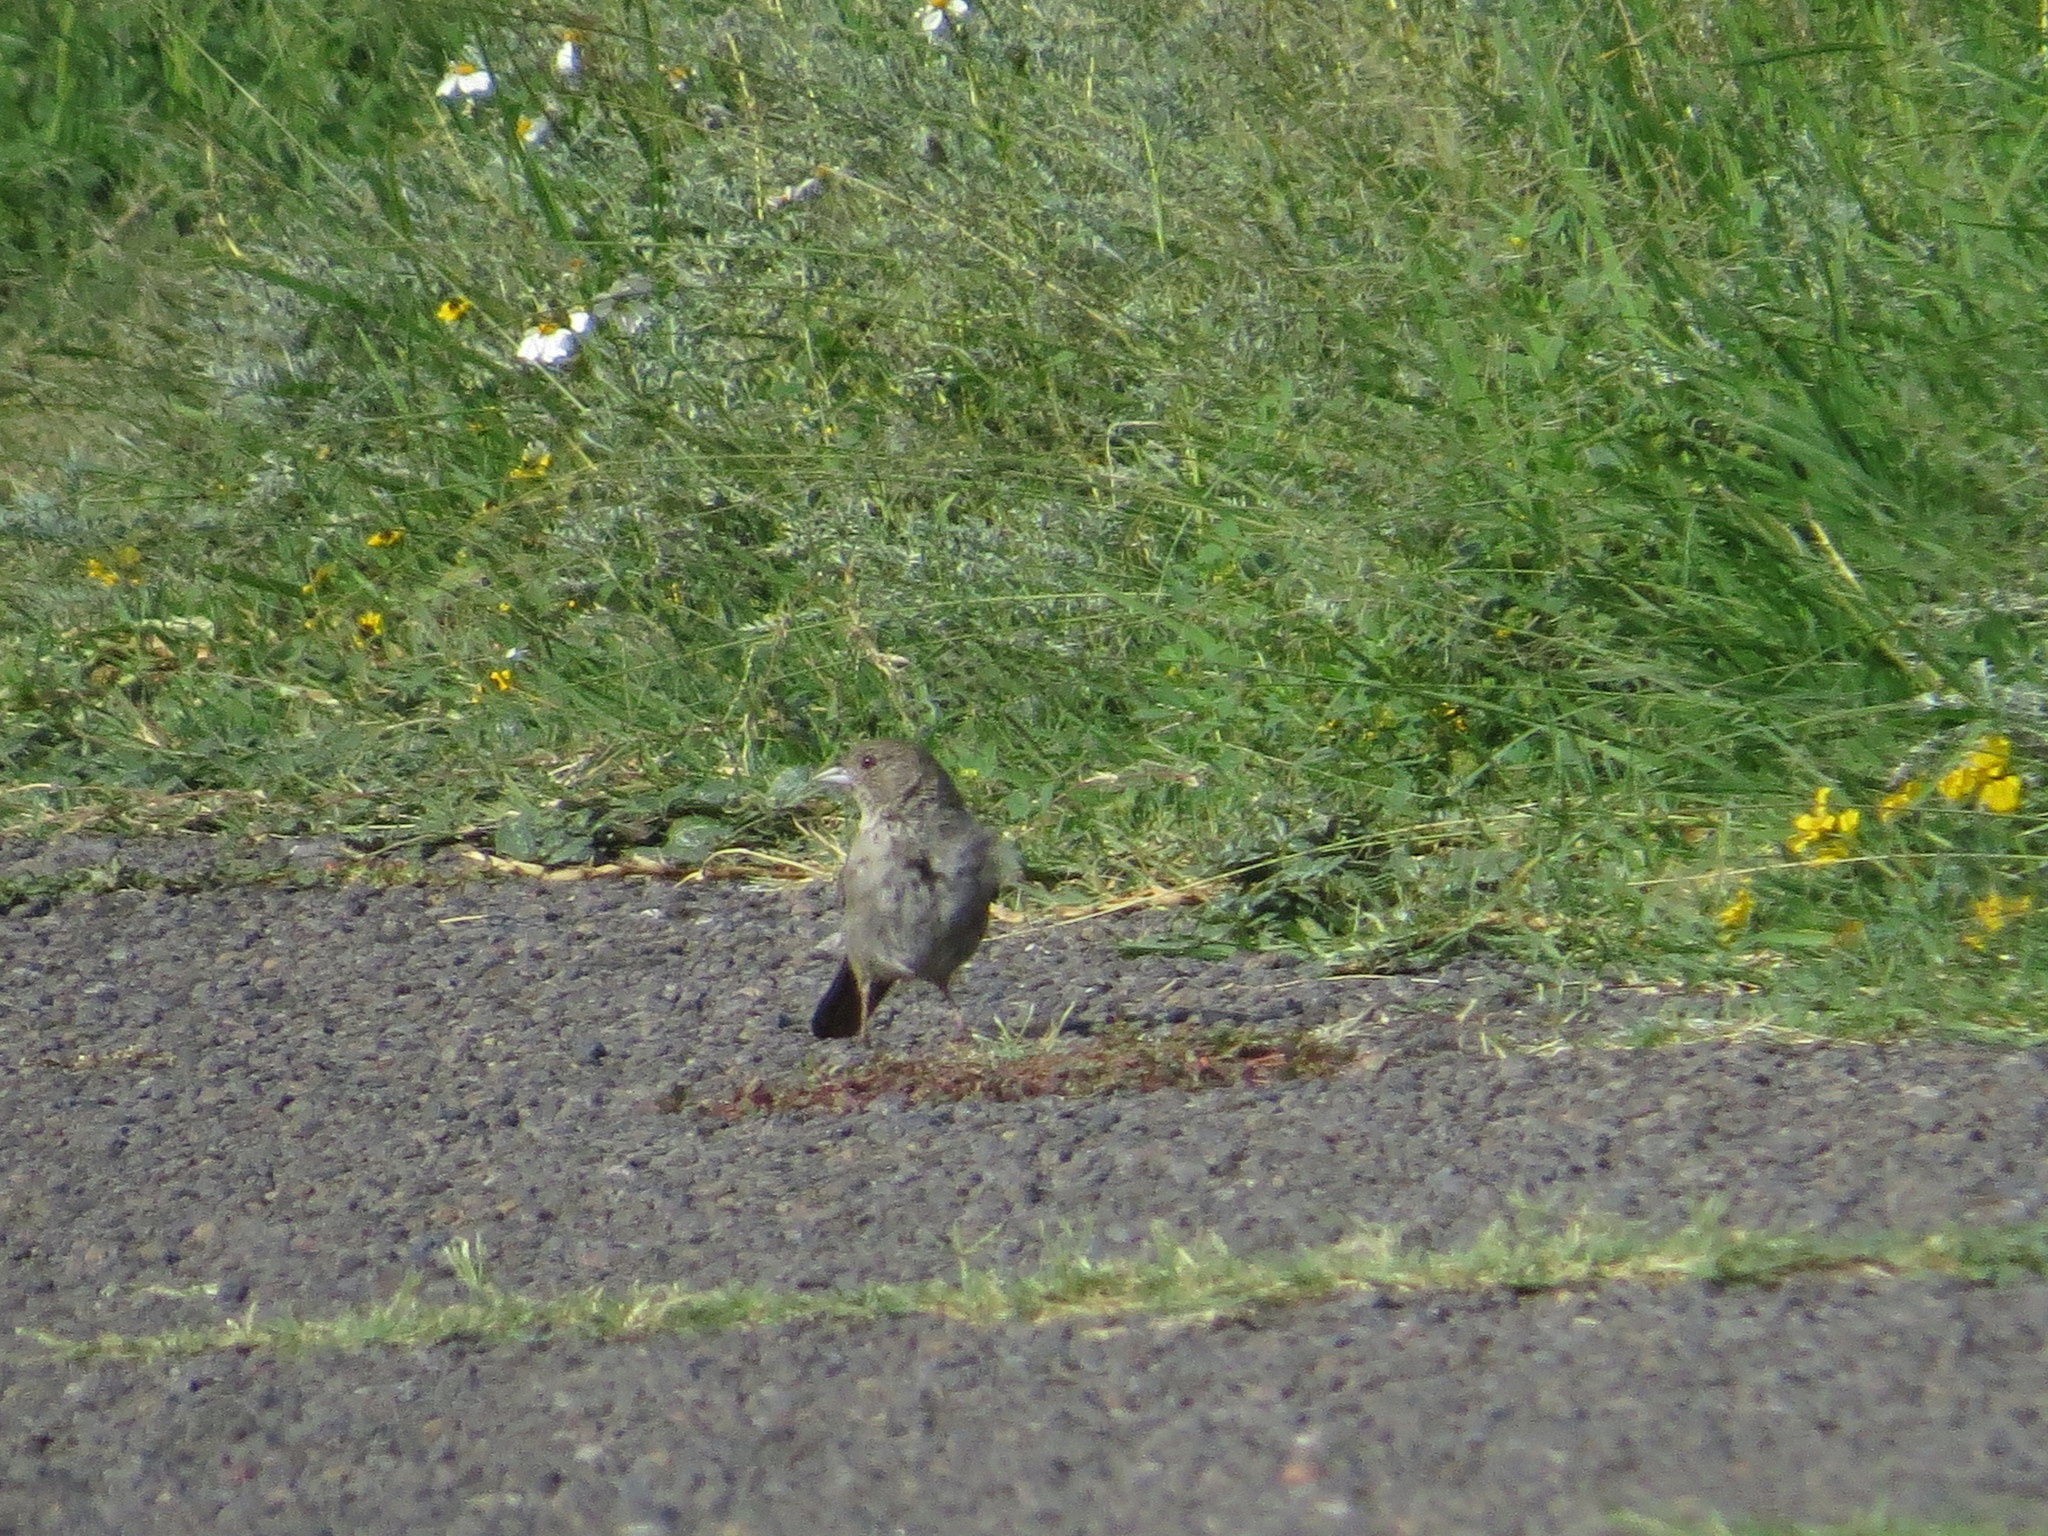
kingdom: Animalia
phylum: Chordata
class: Aves
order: Passeriformes
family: Passerellidae
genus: Melozone
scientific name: Melozone fusca
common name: Canyon towhee
